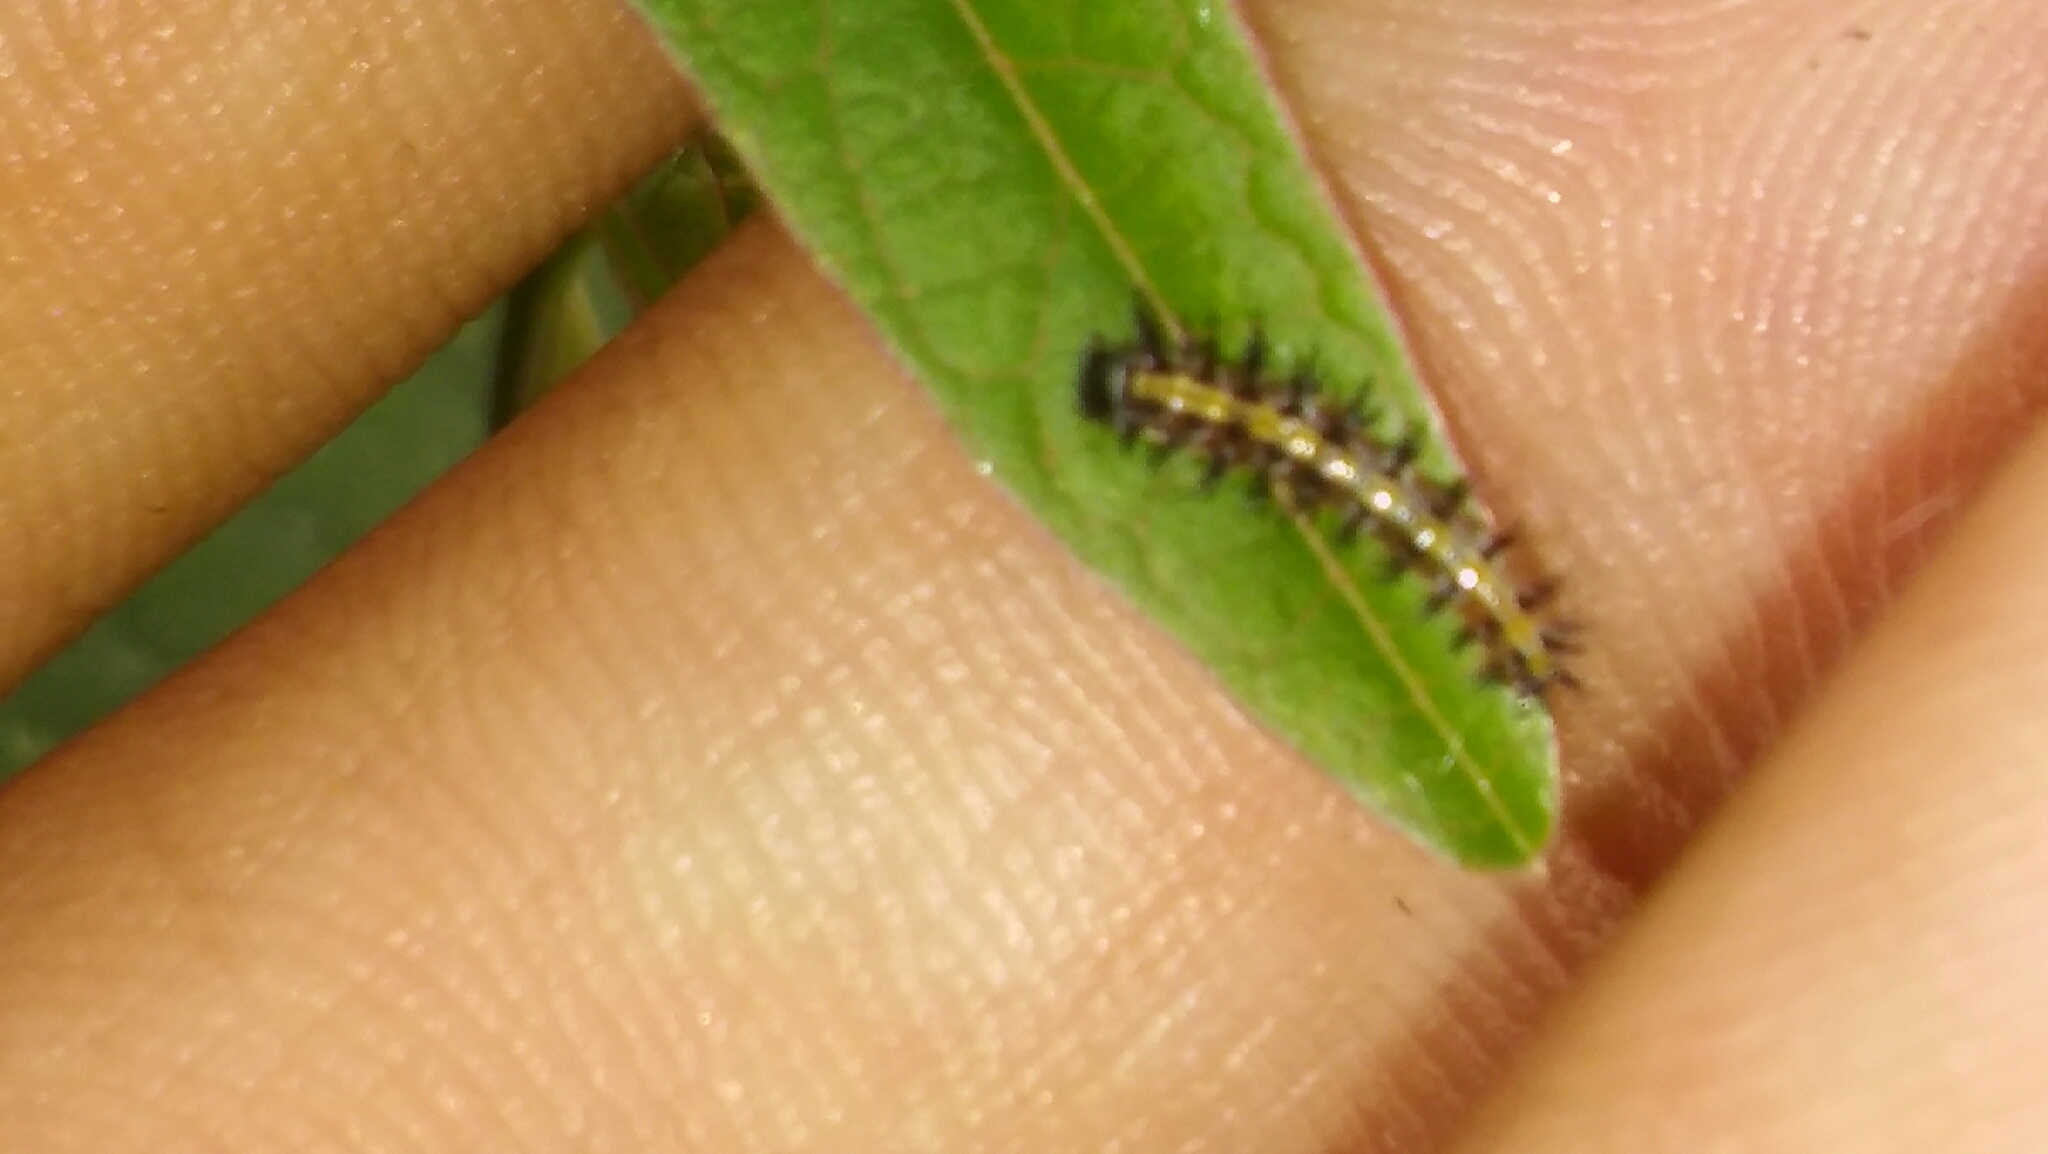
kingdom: Animalia
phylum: Arthropoda
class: Insecta
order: Lepidoptera
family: Nymphalidae
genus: Dione
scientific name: Dione vanillae
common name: Gulf fritillary
